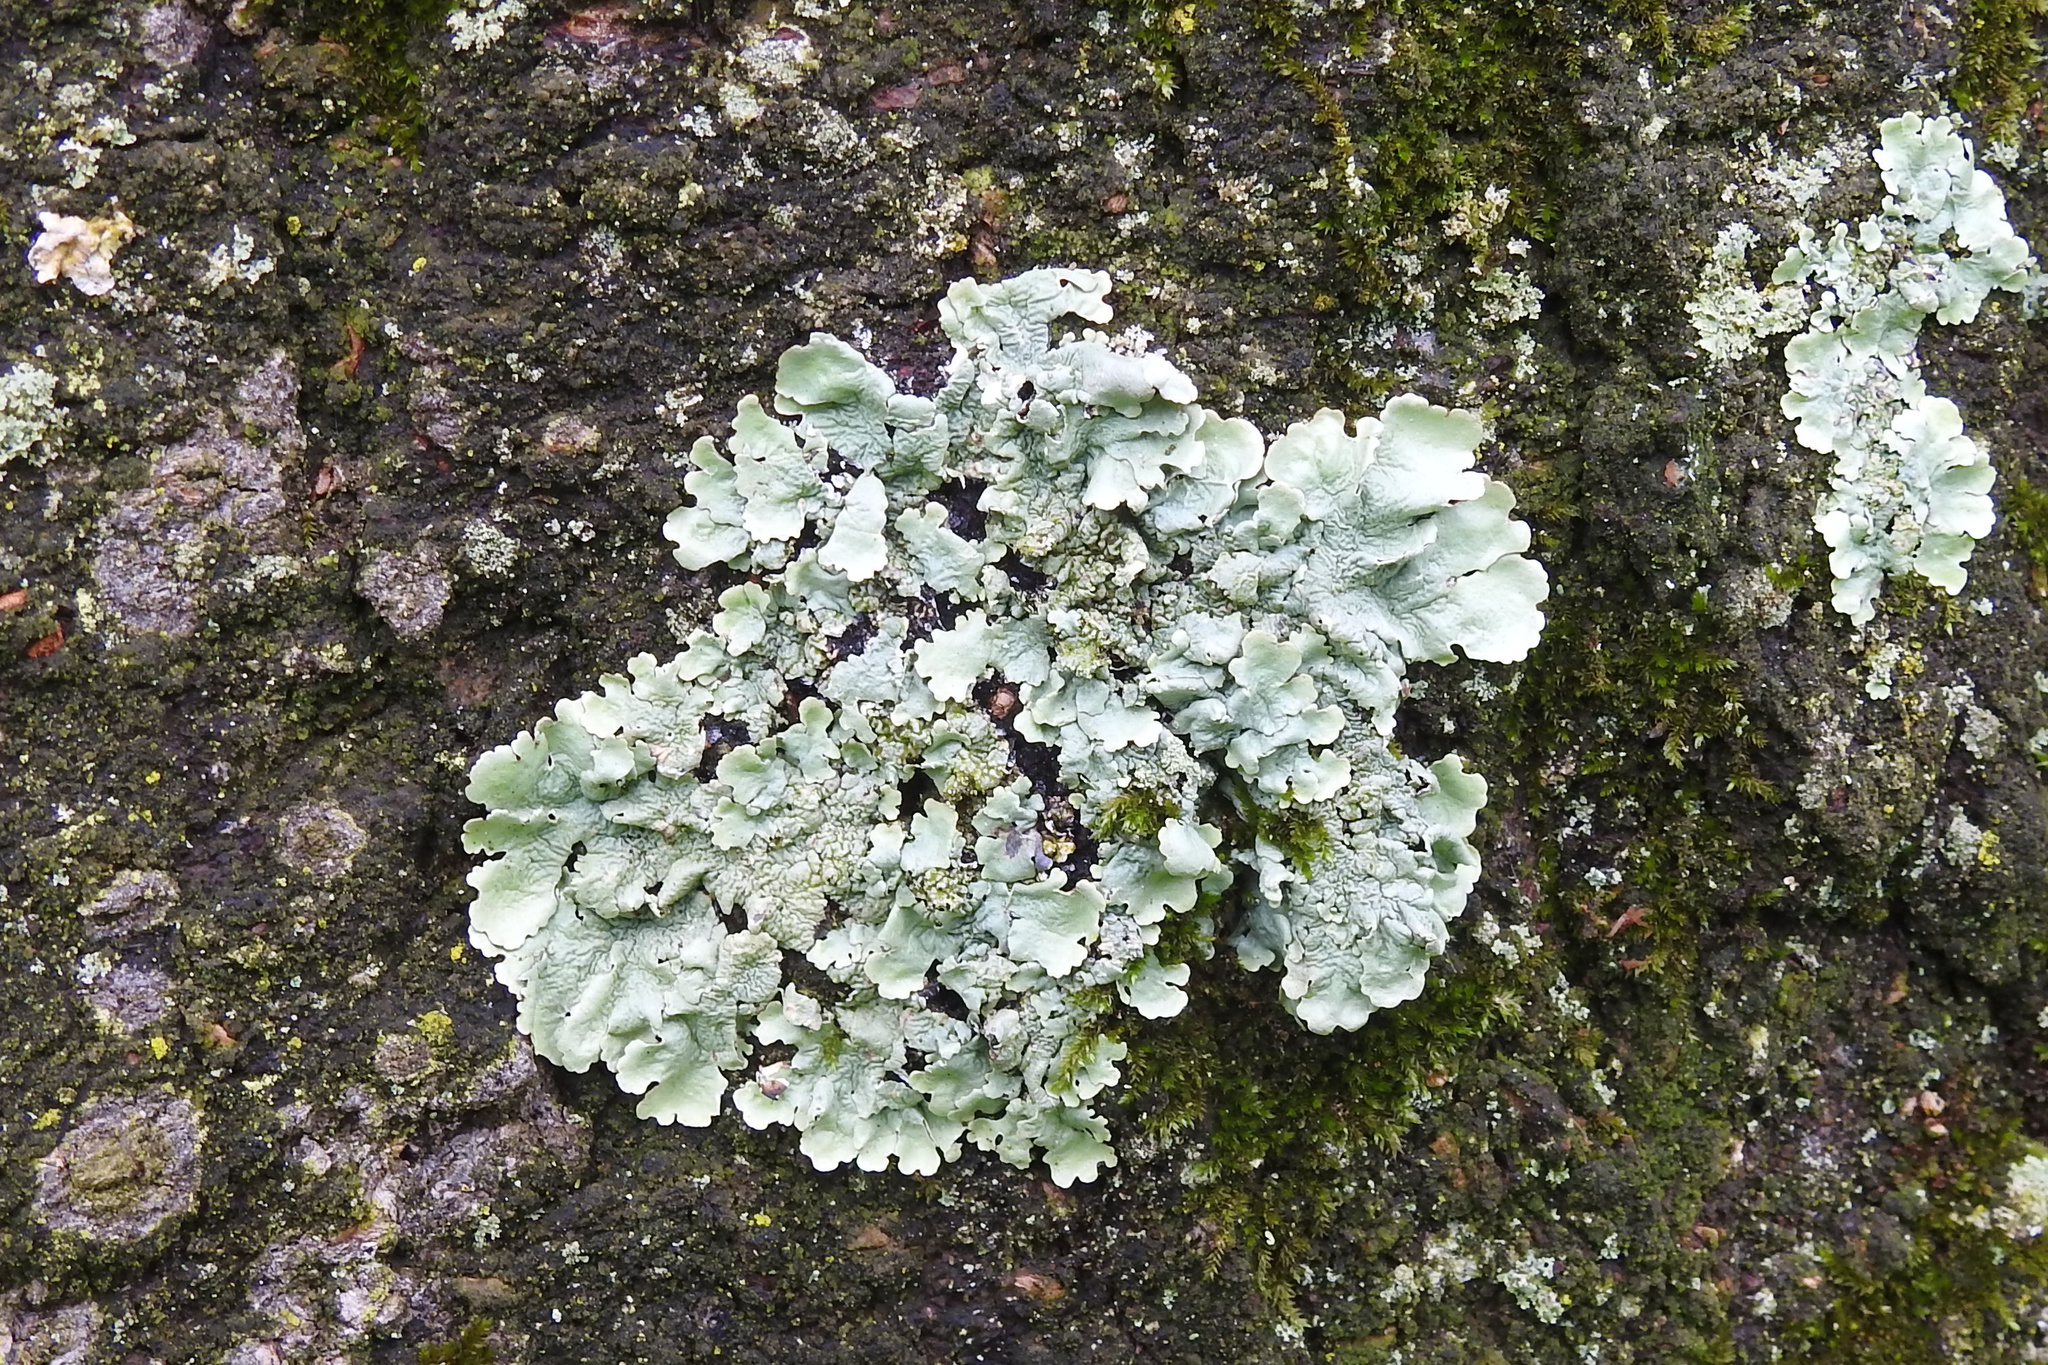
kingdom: Fungi
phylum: Ascomycota
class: Lecanoromycetes
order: Lecanorales
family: Parmeliaceae
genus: Flavoparmelia
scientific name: Flavoparmelia caperata
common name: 40-mile per hour lichen
